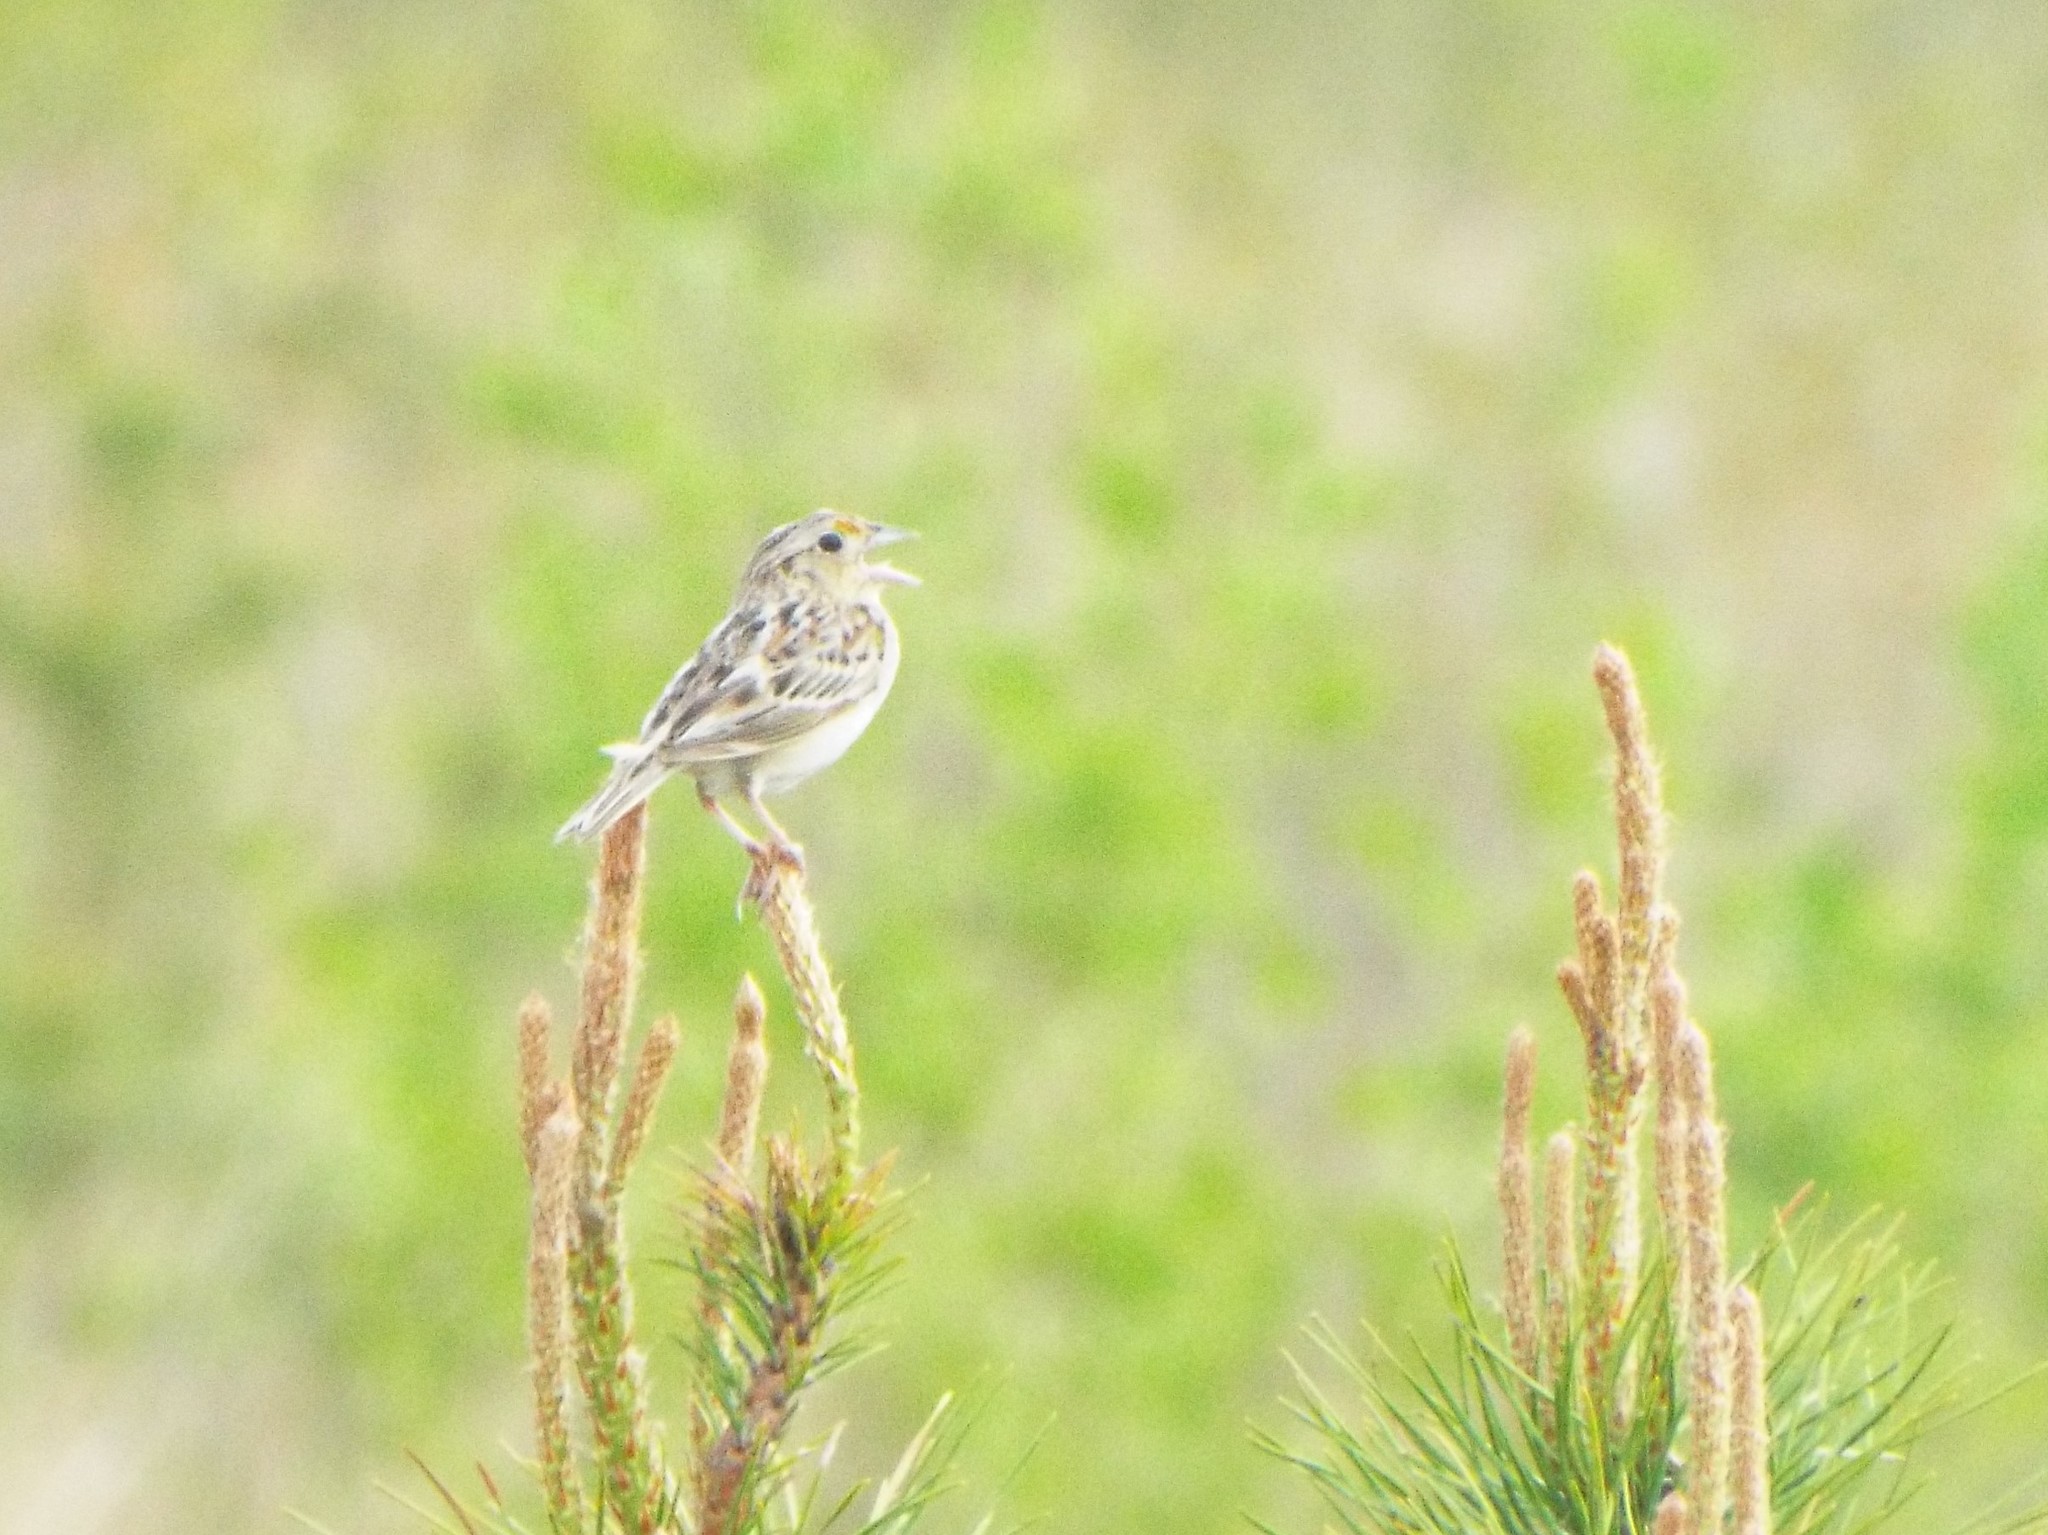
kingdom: Animalia
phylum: Chordata
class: Aves
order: Passeriformes
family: Passerellidae
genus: Ammodramus
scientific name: Ammodramus savannarum
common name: Grasshopper sparrow
